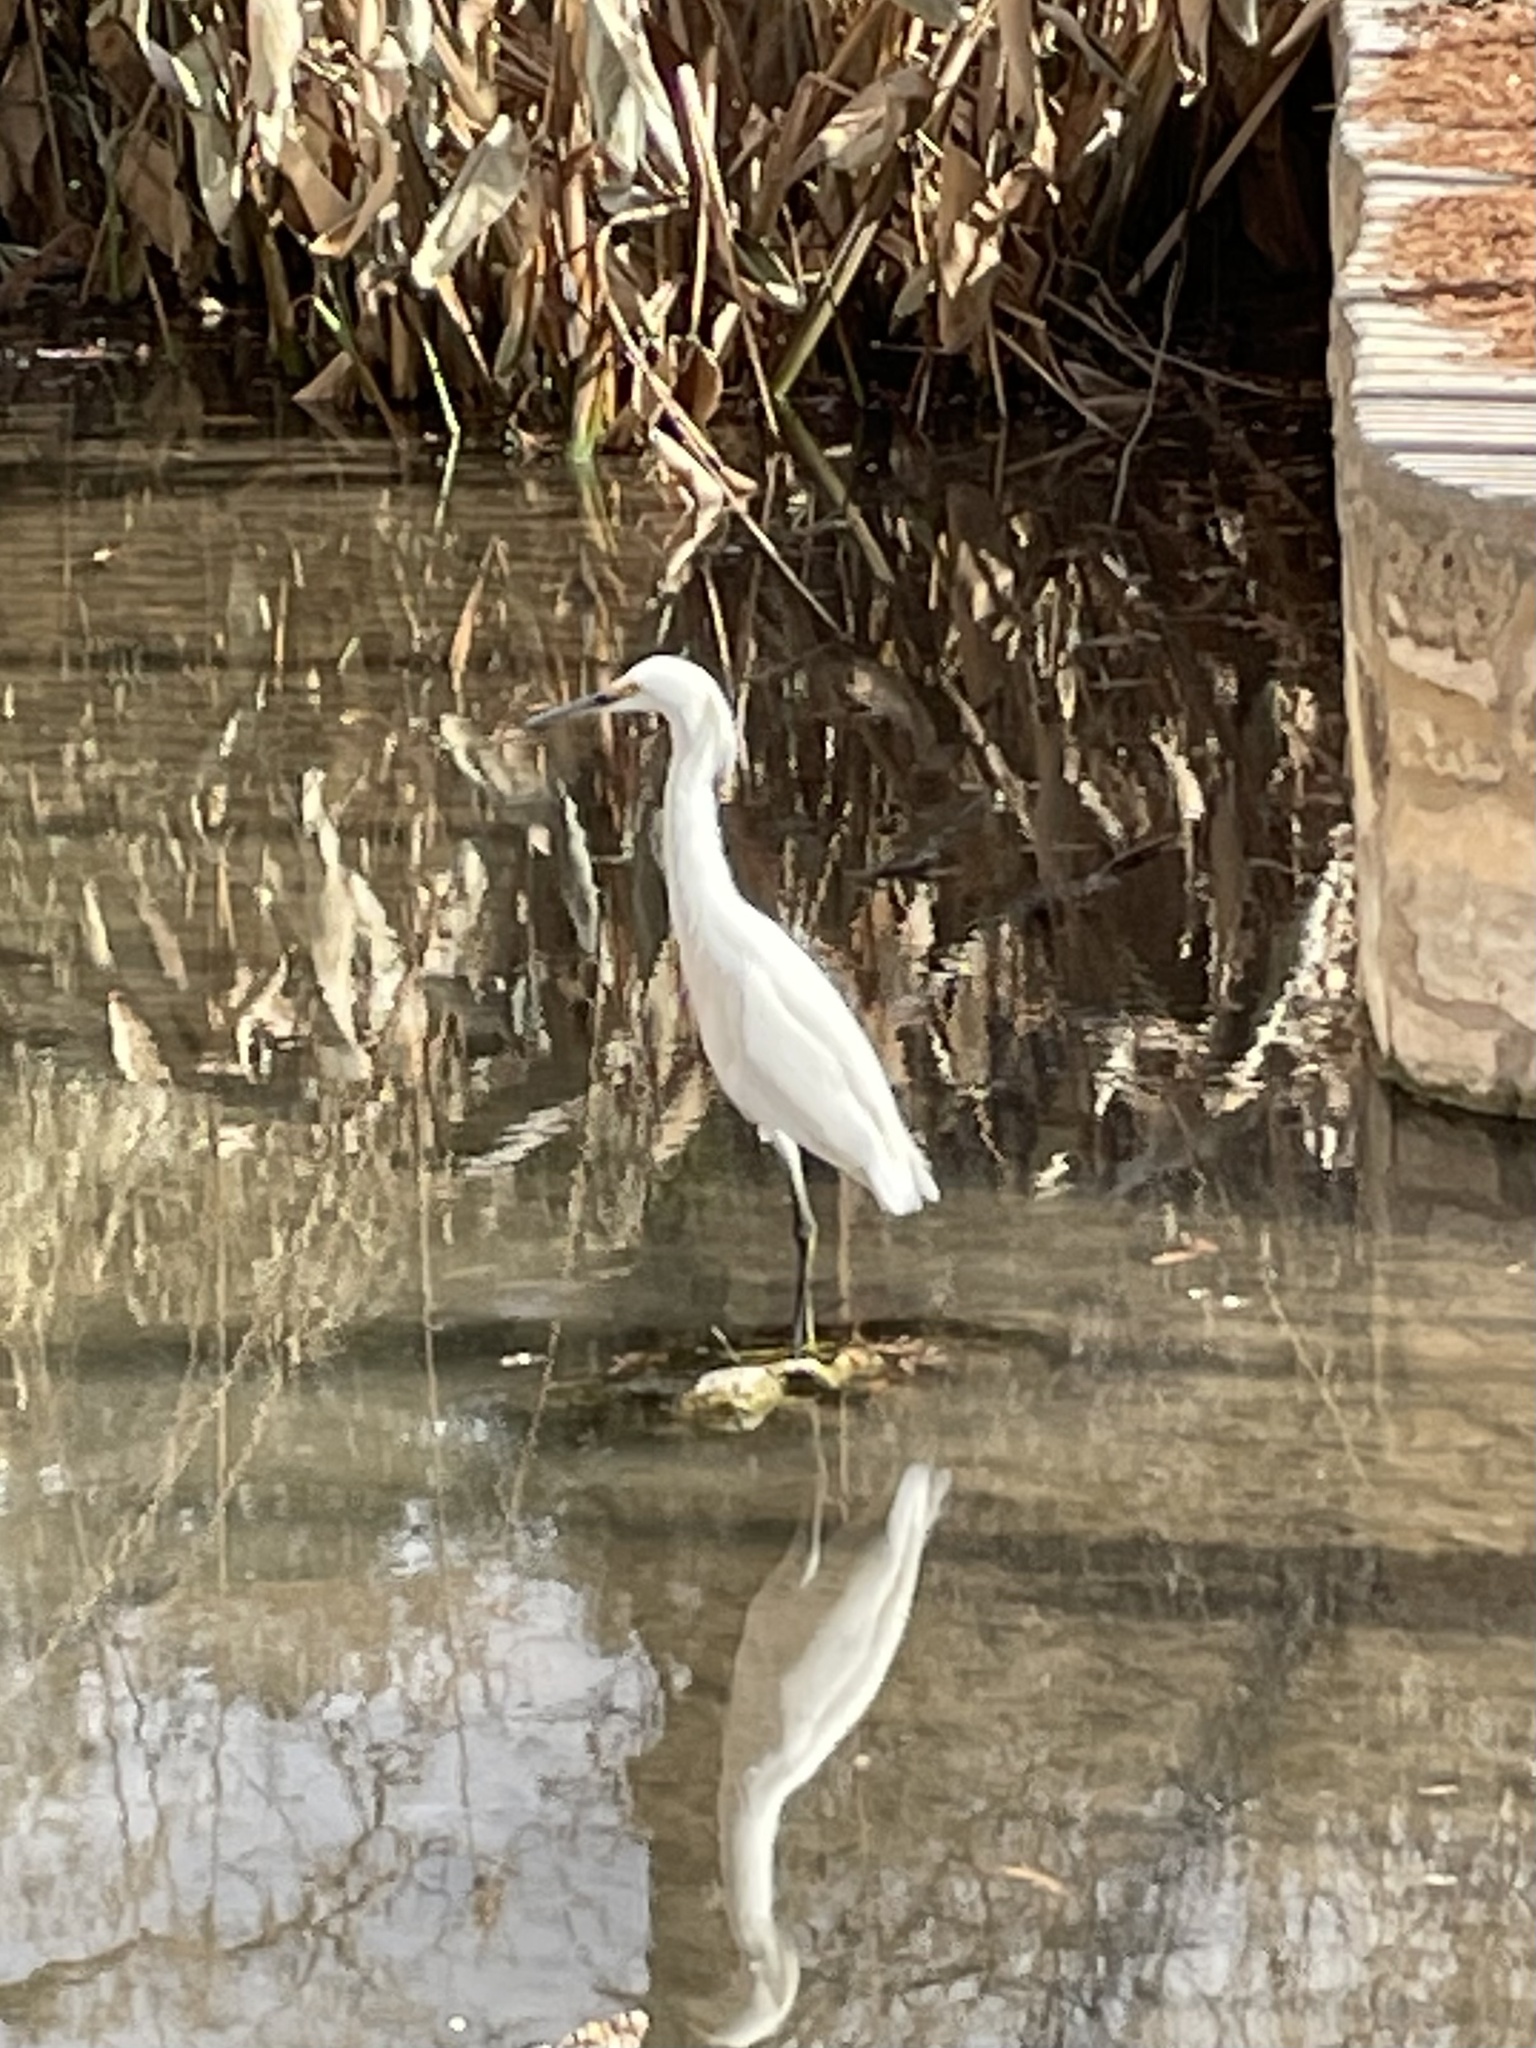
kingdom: Animalia
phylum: Chordata
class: Aves
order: Pelecaniformes
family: Ardeidae
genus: Egretta
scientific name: Egretta thula
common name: Snowy egret
